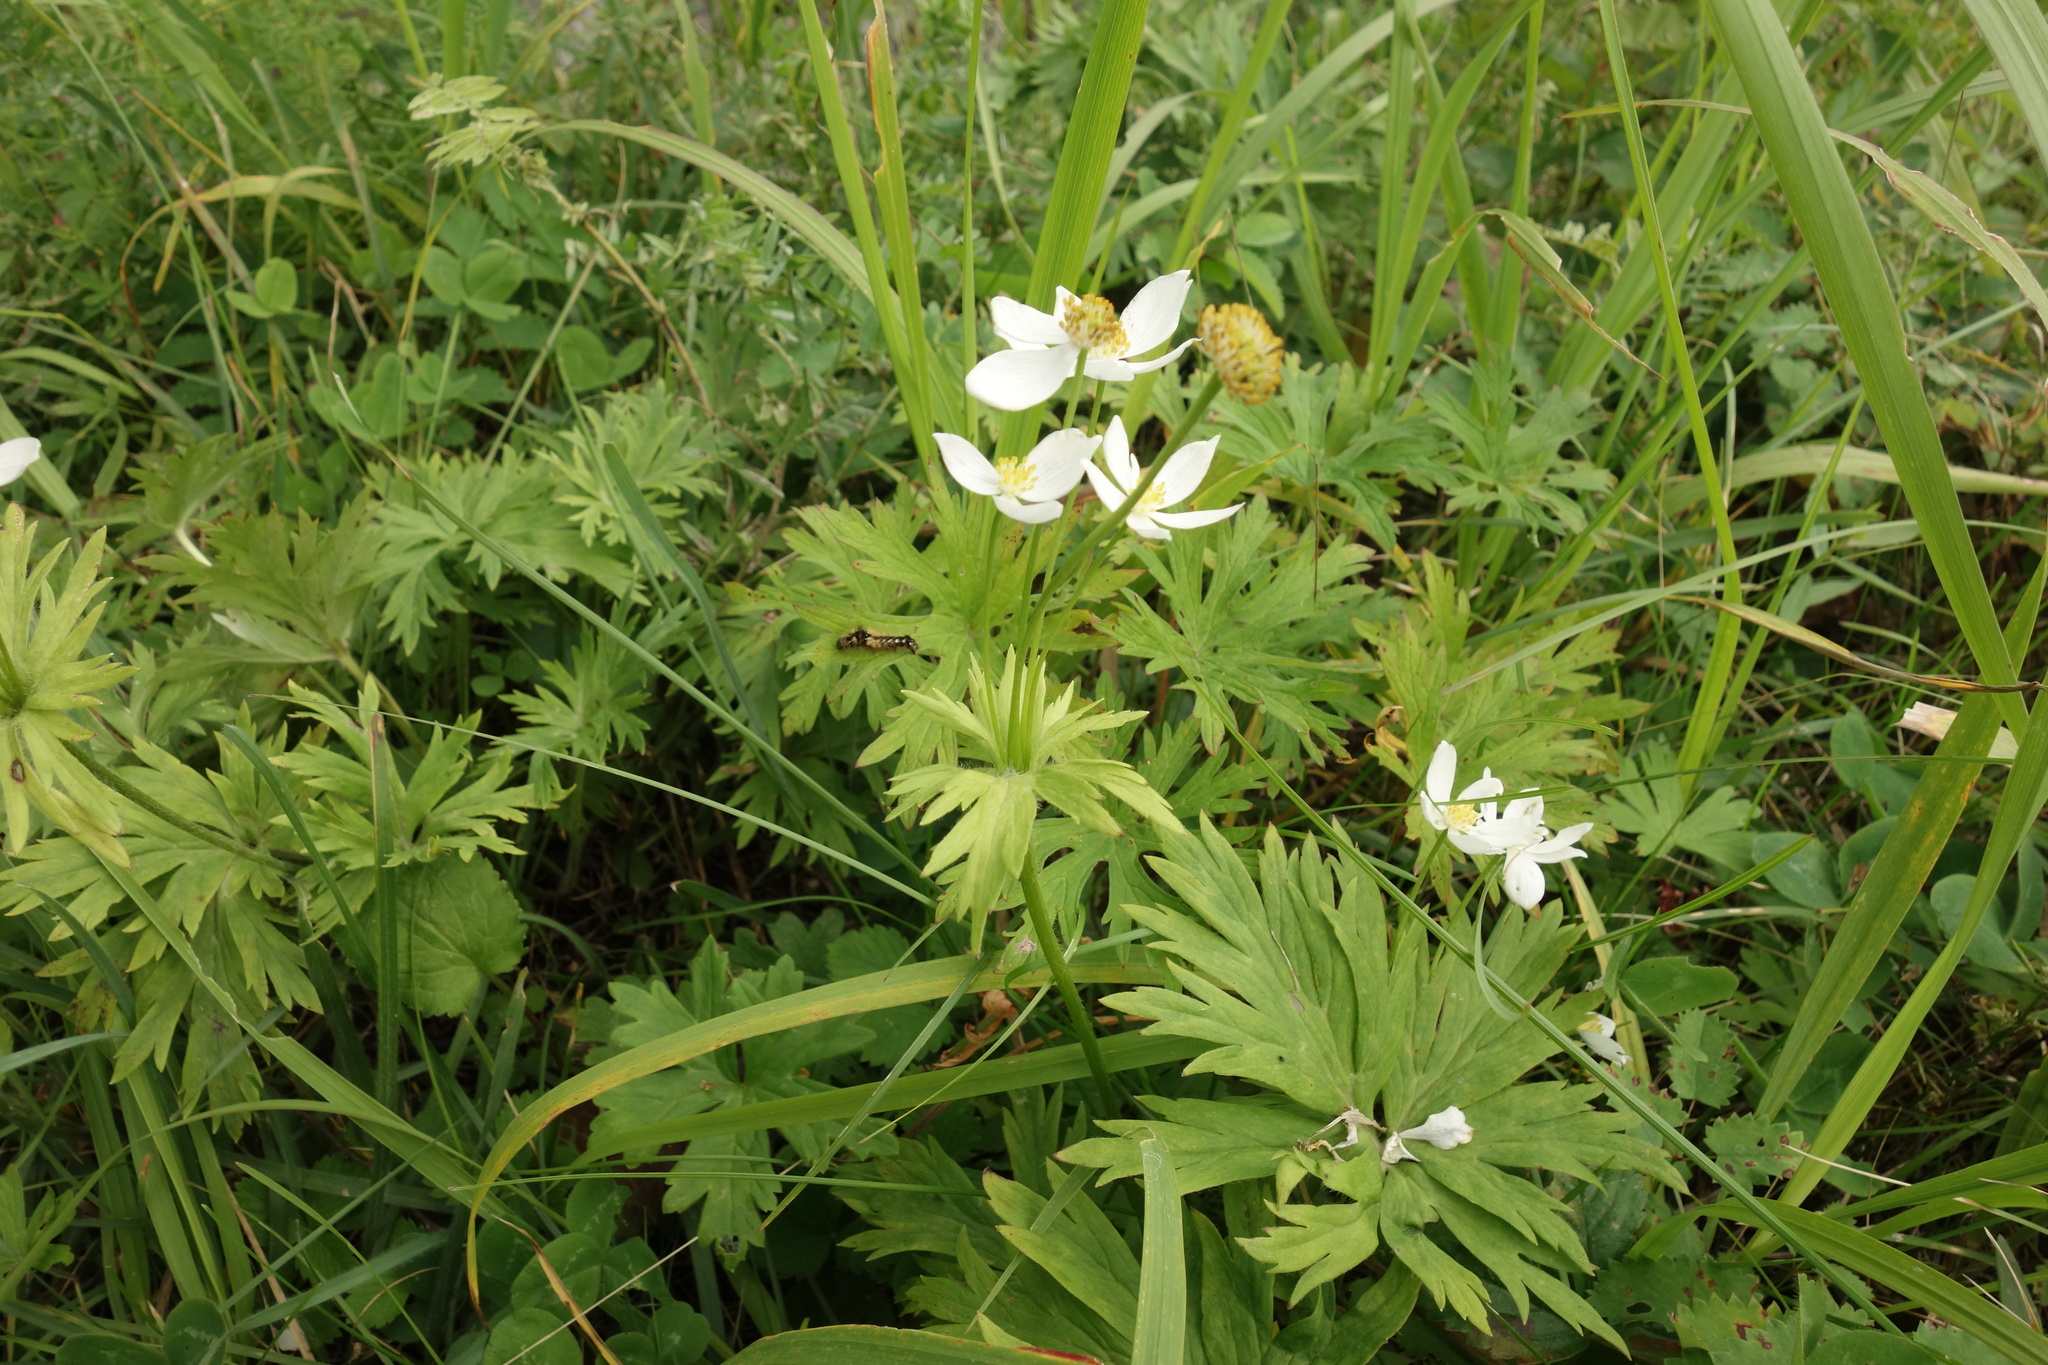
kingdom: Plantae
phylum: Tracheophyta
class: Magnoliopsida
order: Ranunculales
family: Ranunculaceae
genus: Anemonastrum
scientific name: Anemonastrum narcissiflorum
